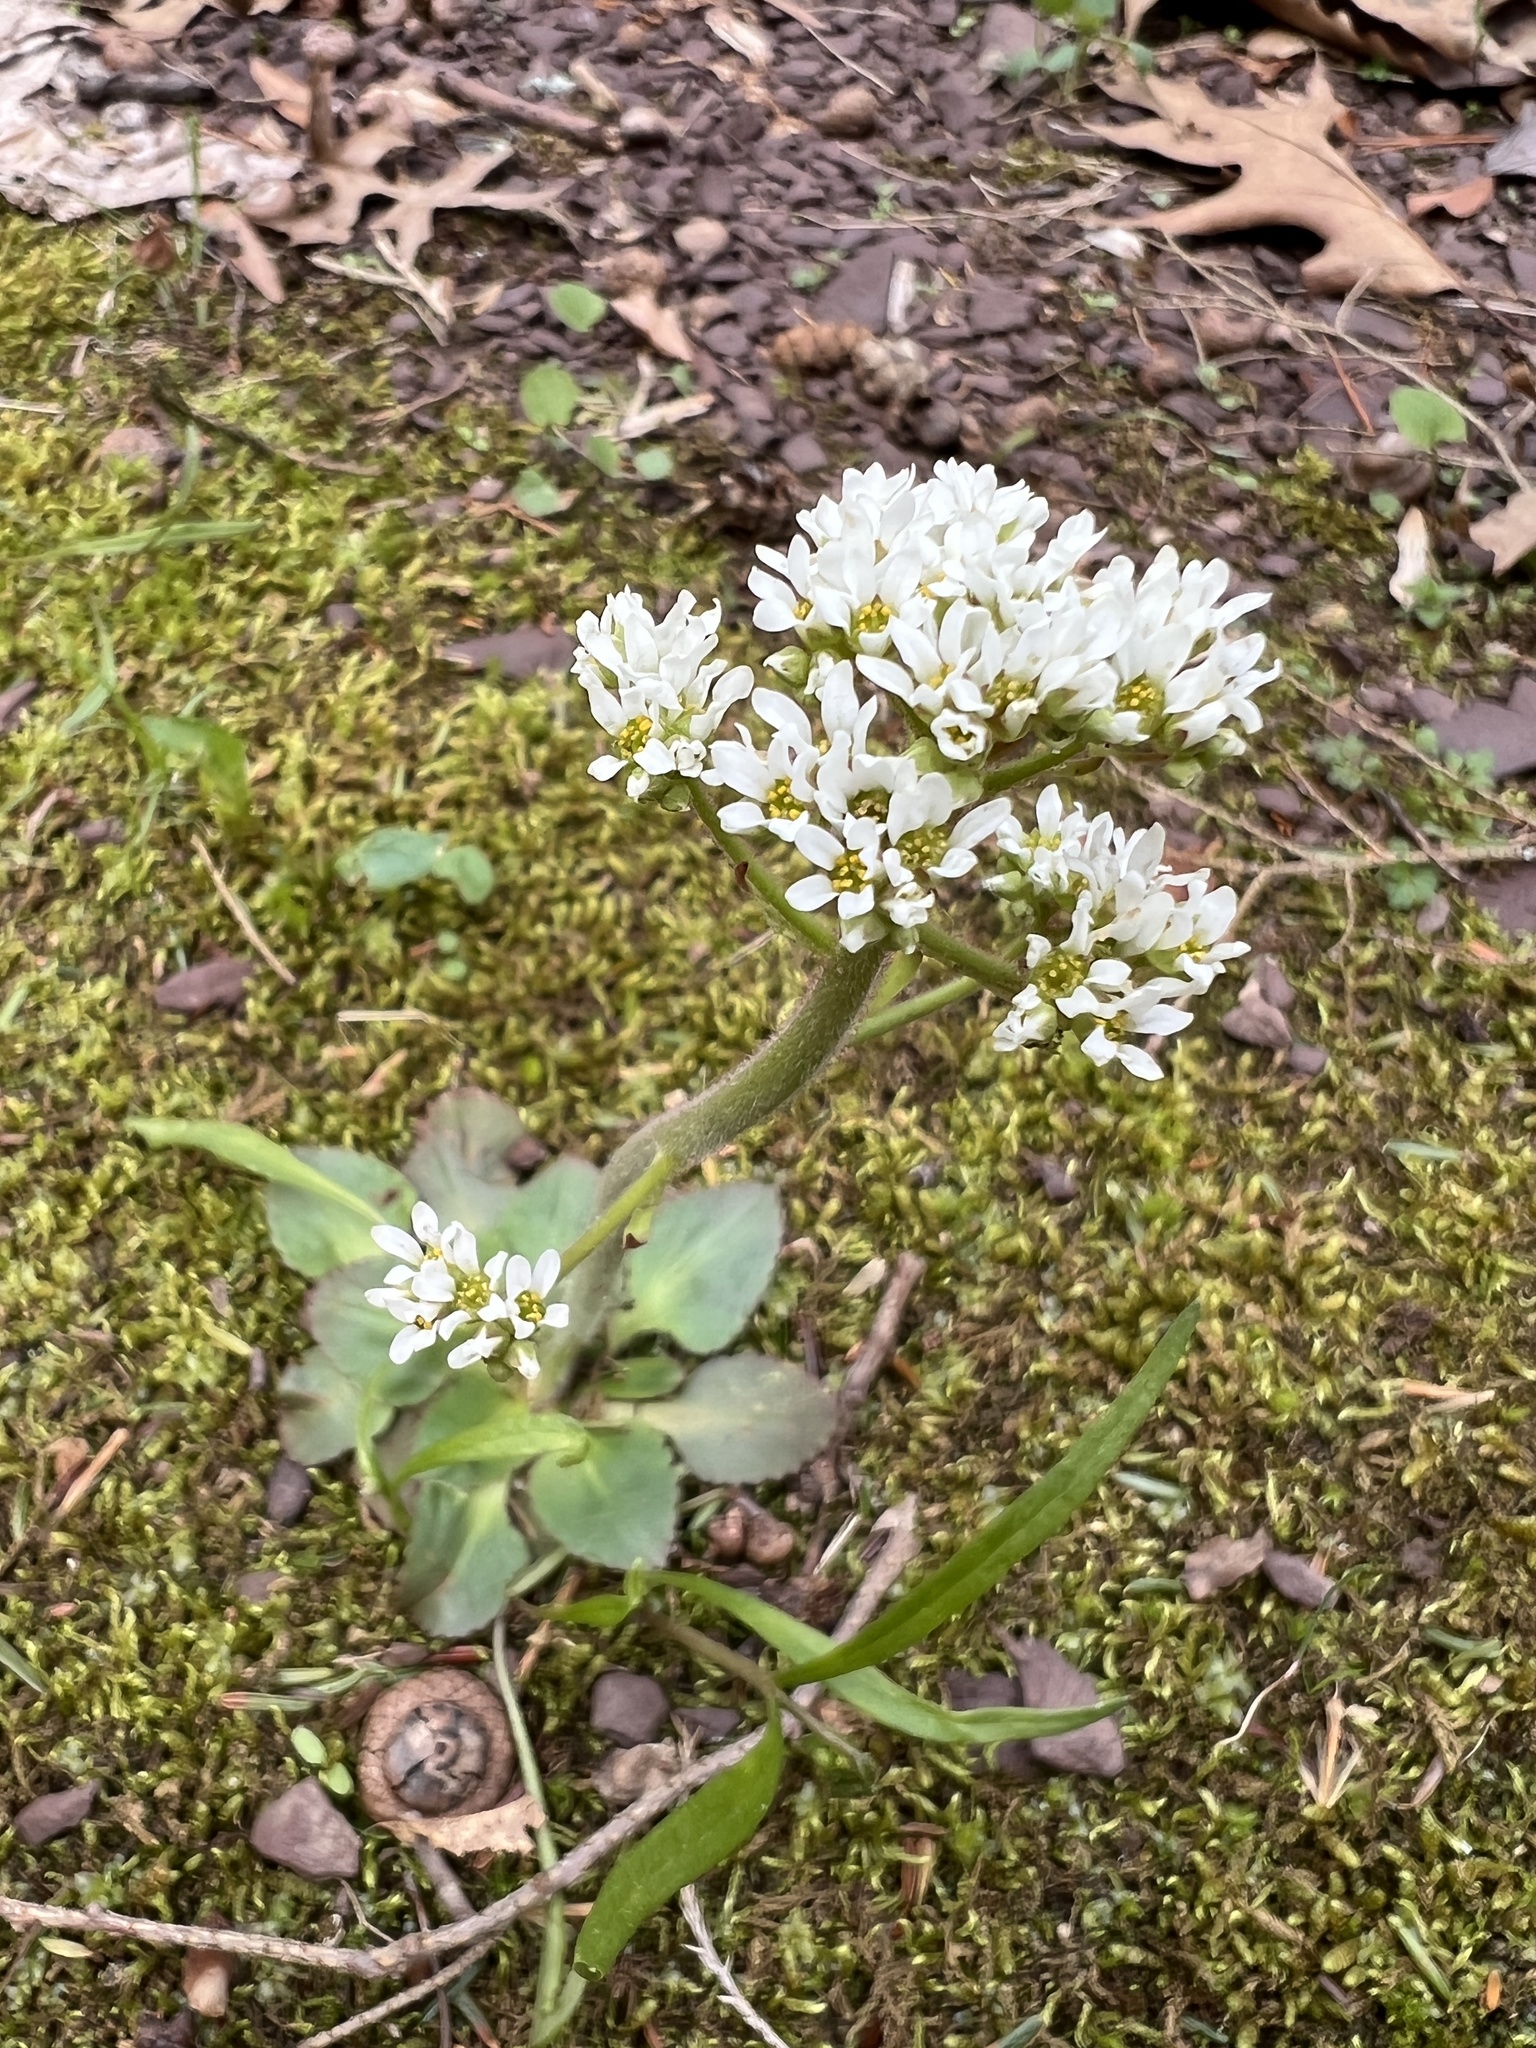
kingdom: Plantae
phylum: Tracheophyta
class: Magnoliopsida
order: Saxifragales
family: Saxifragaceae
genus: Micranthes
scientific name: Micranthes virginiensis
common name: Early saxifrage
